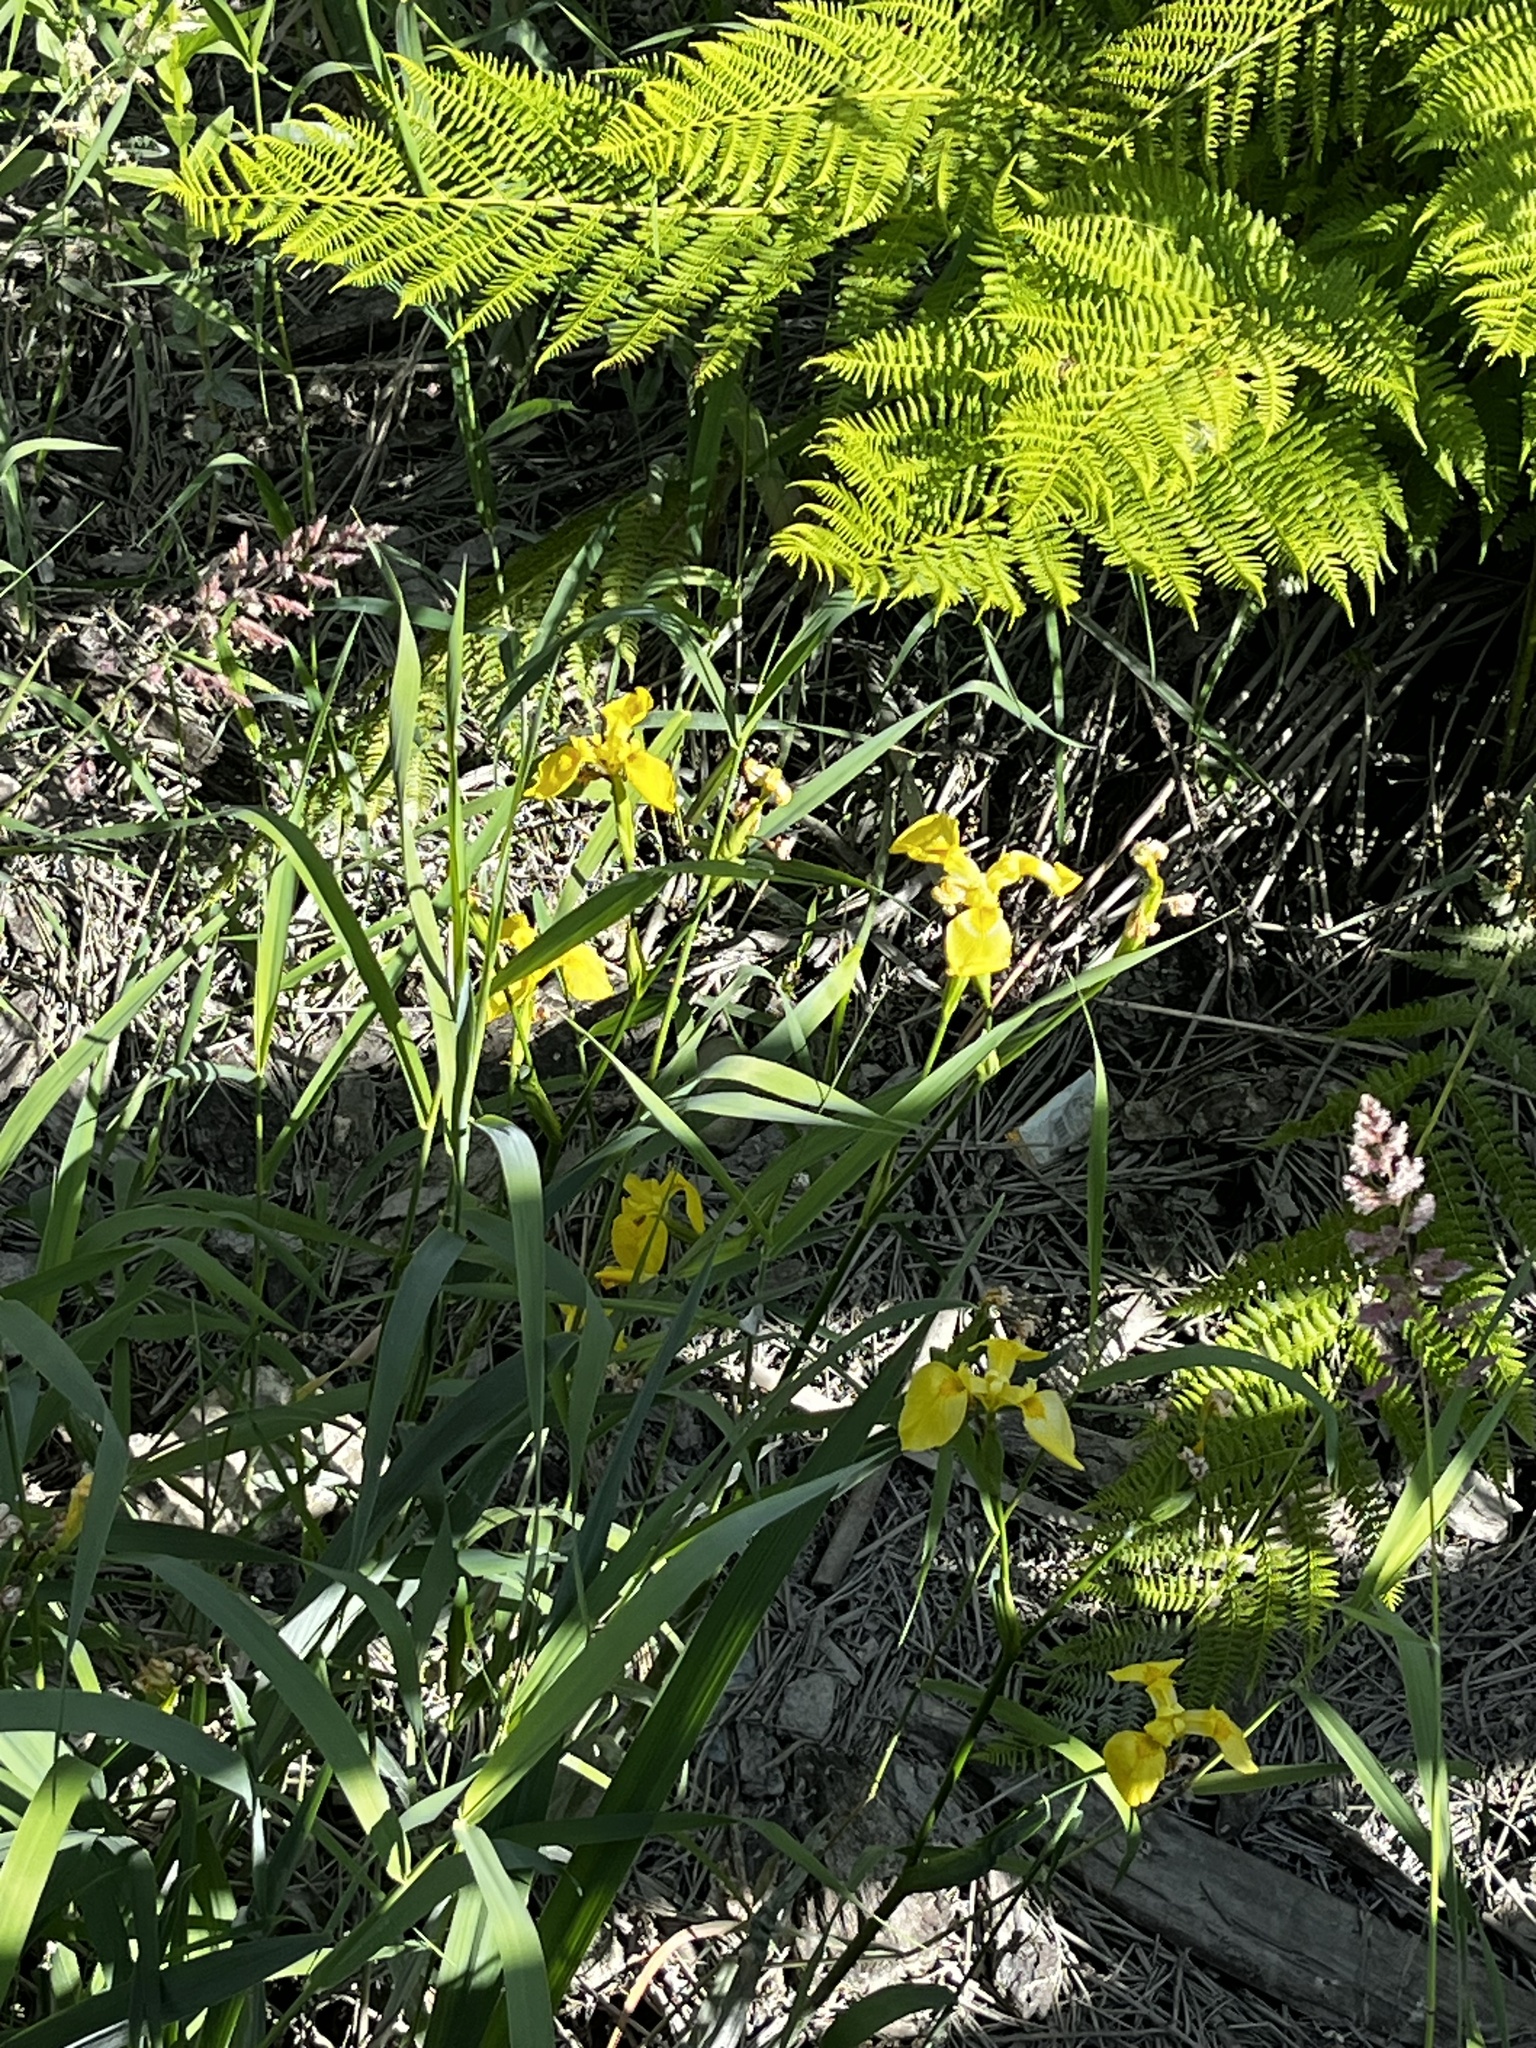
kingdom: Plantae
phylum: Tracheophyta
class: Liliopsida
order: Asparagales
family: Iridaceae
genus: Iris
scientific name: Iris pseudacorus
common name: Yellow flag
